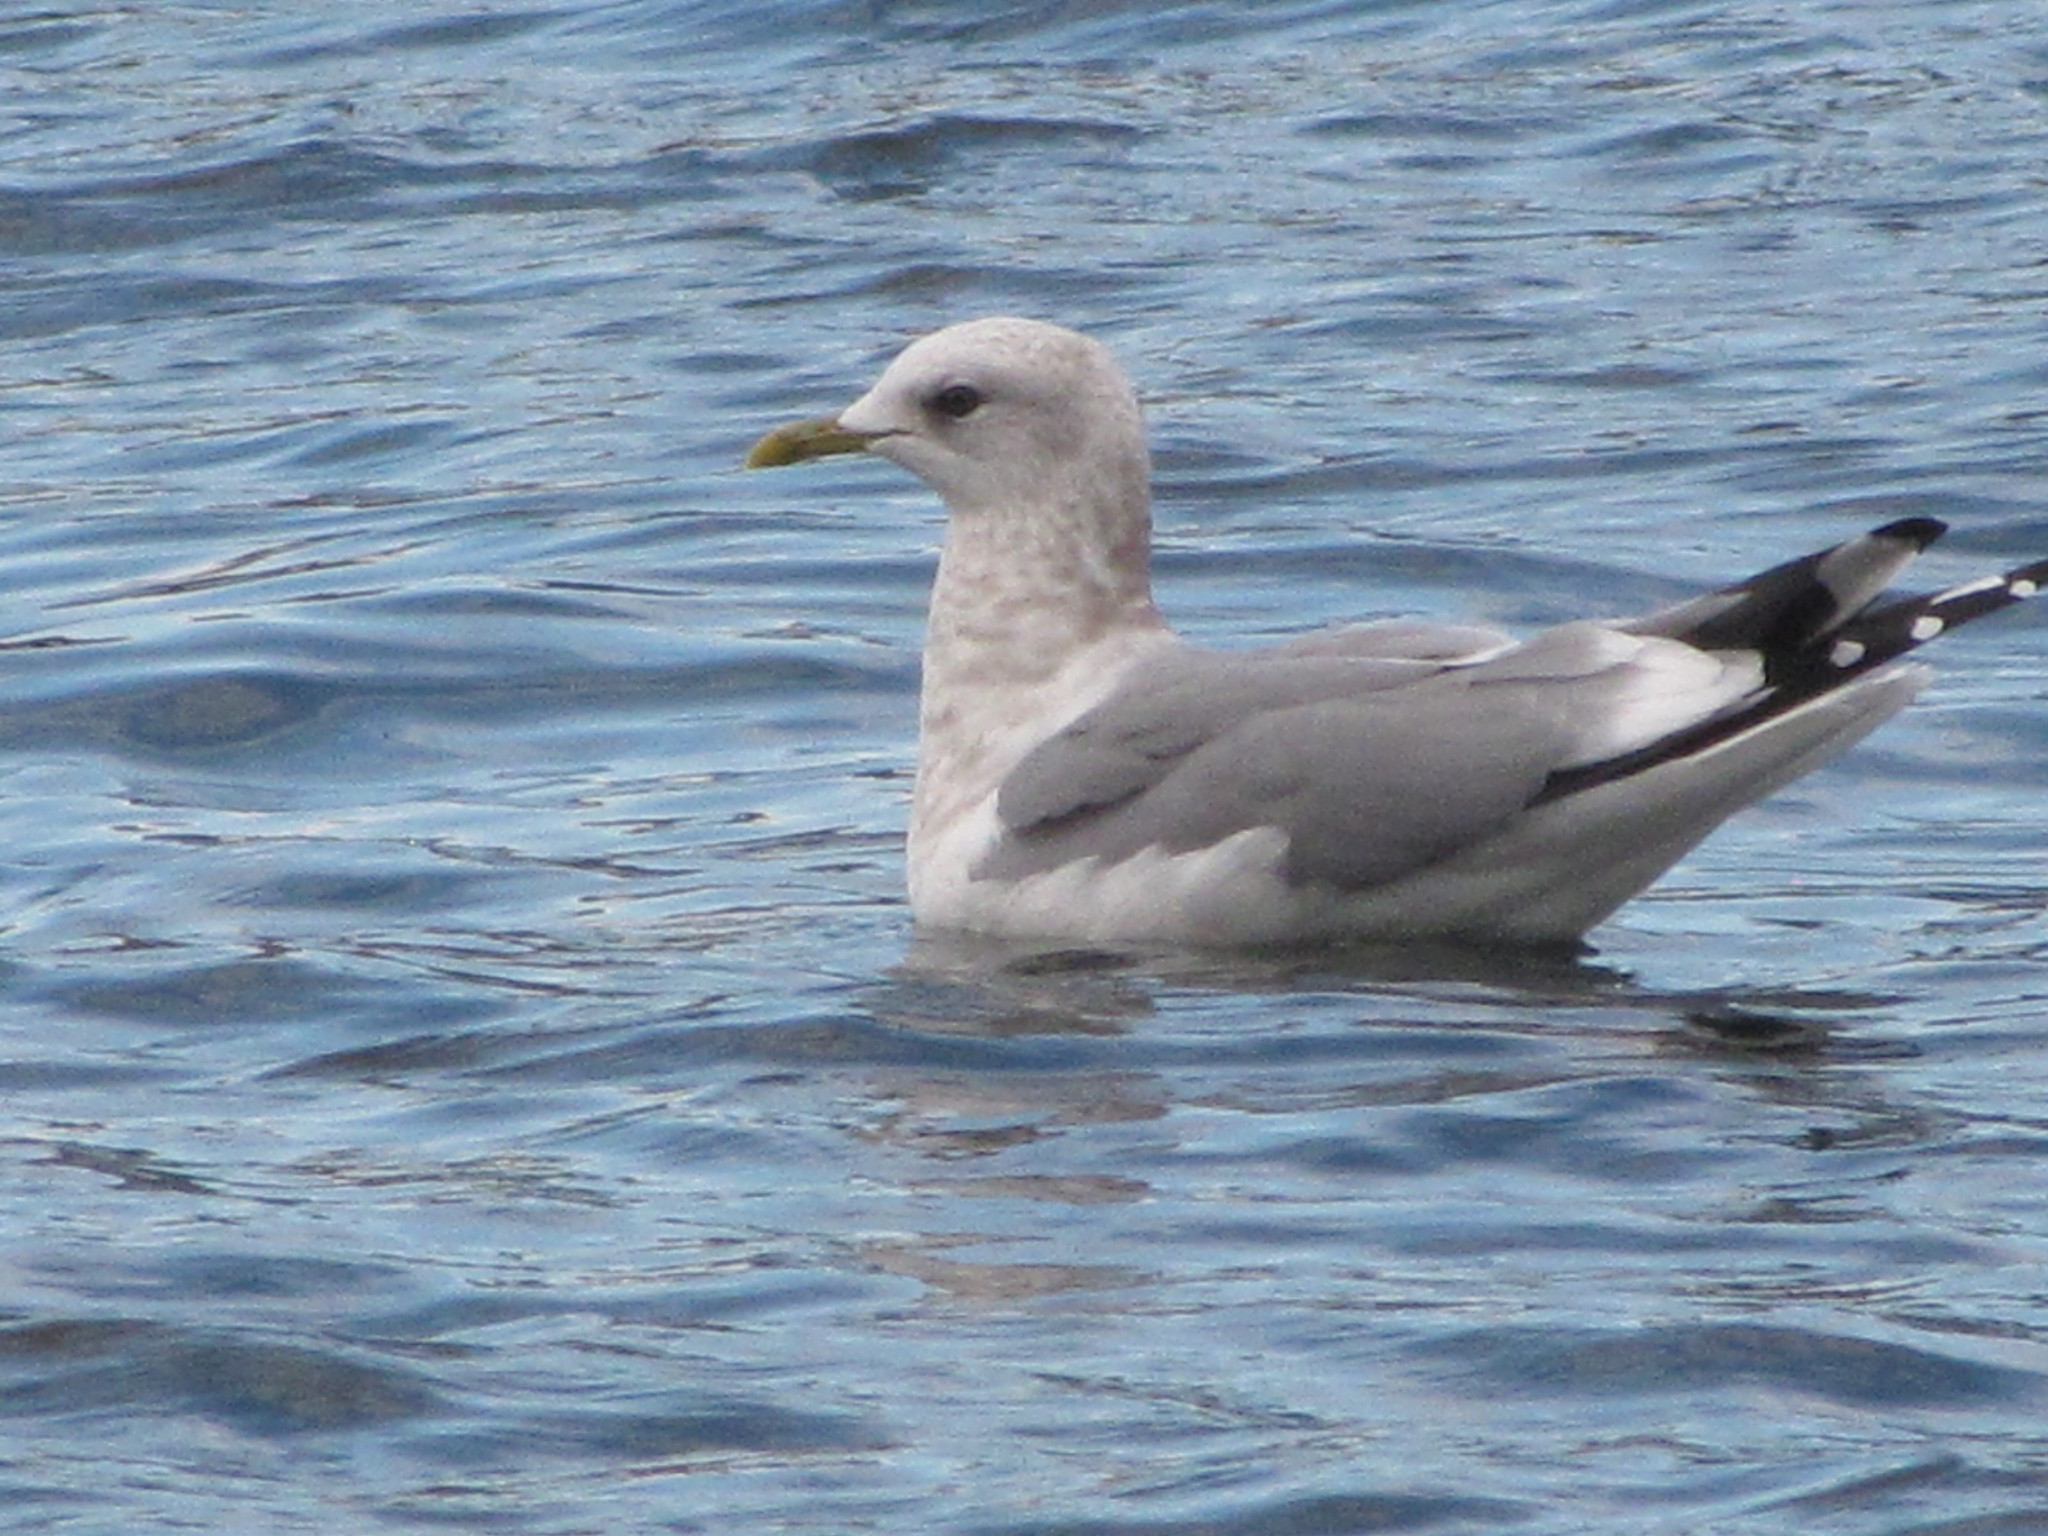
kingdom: Animalia
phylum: Chordata
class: Aves
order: Charadriiformes
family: Laridae
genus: Larus
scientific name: Larus brachyrhynchus
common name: Short-billed gull
